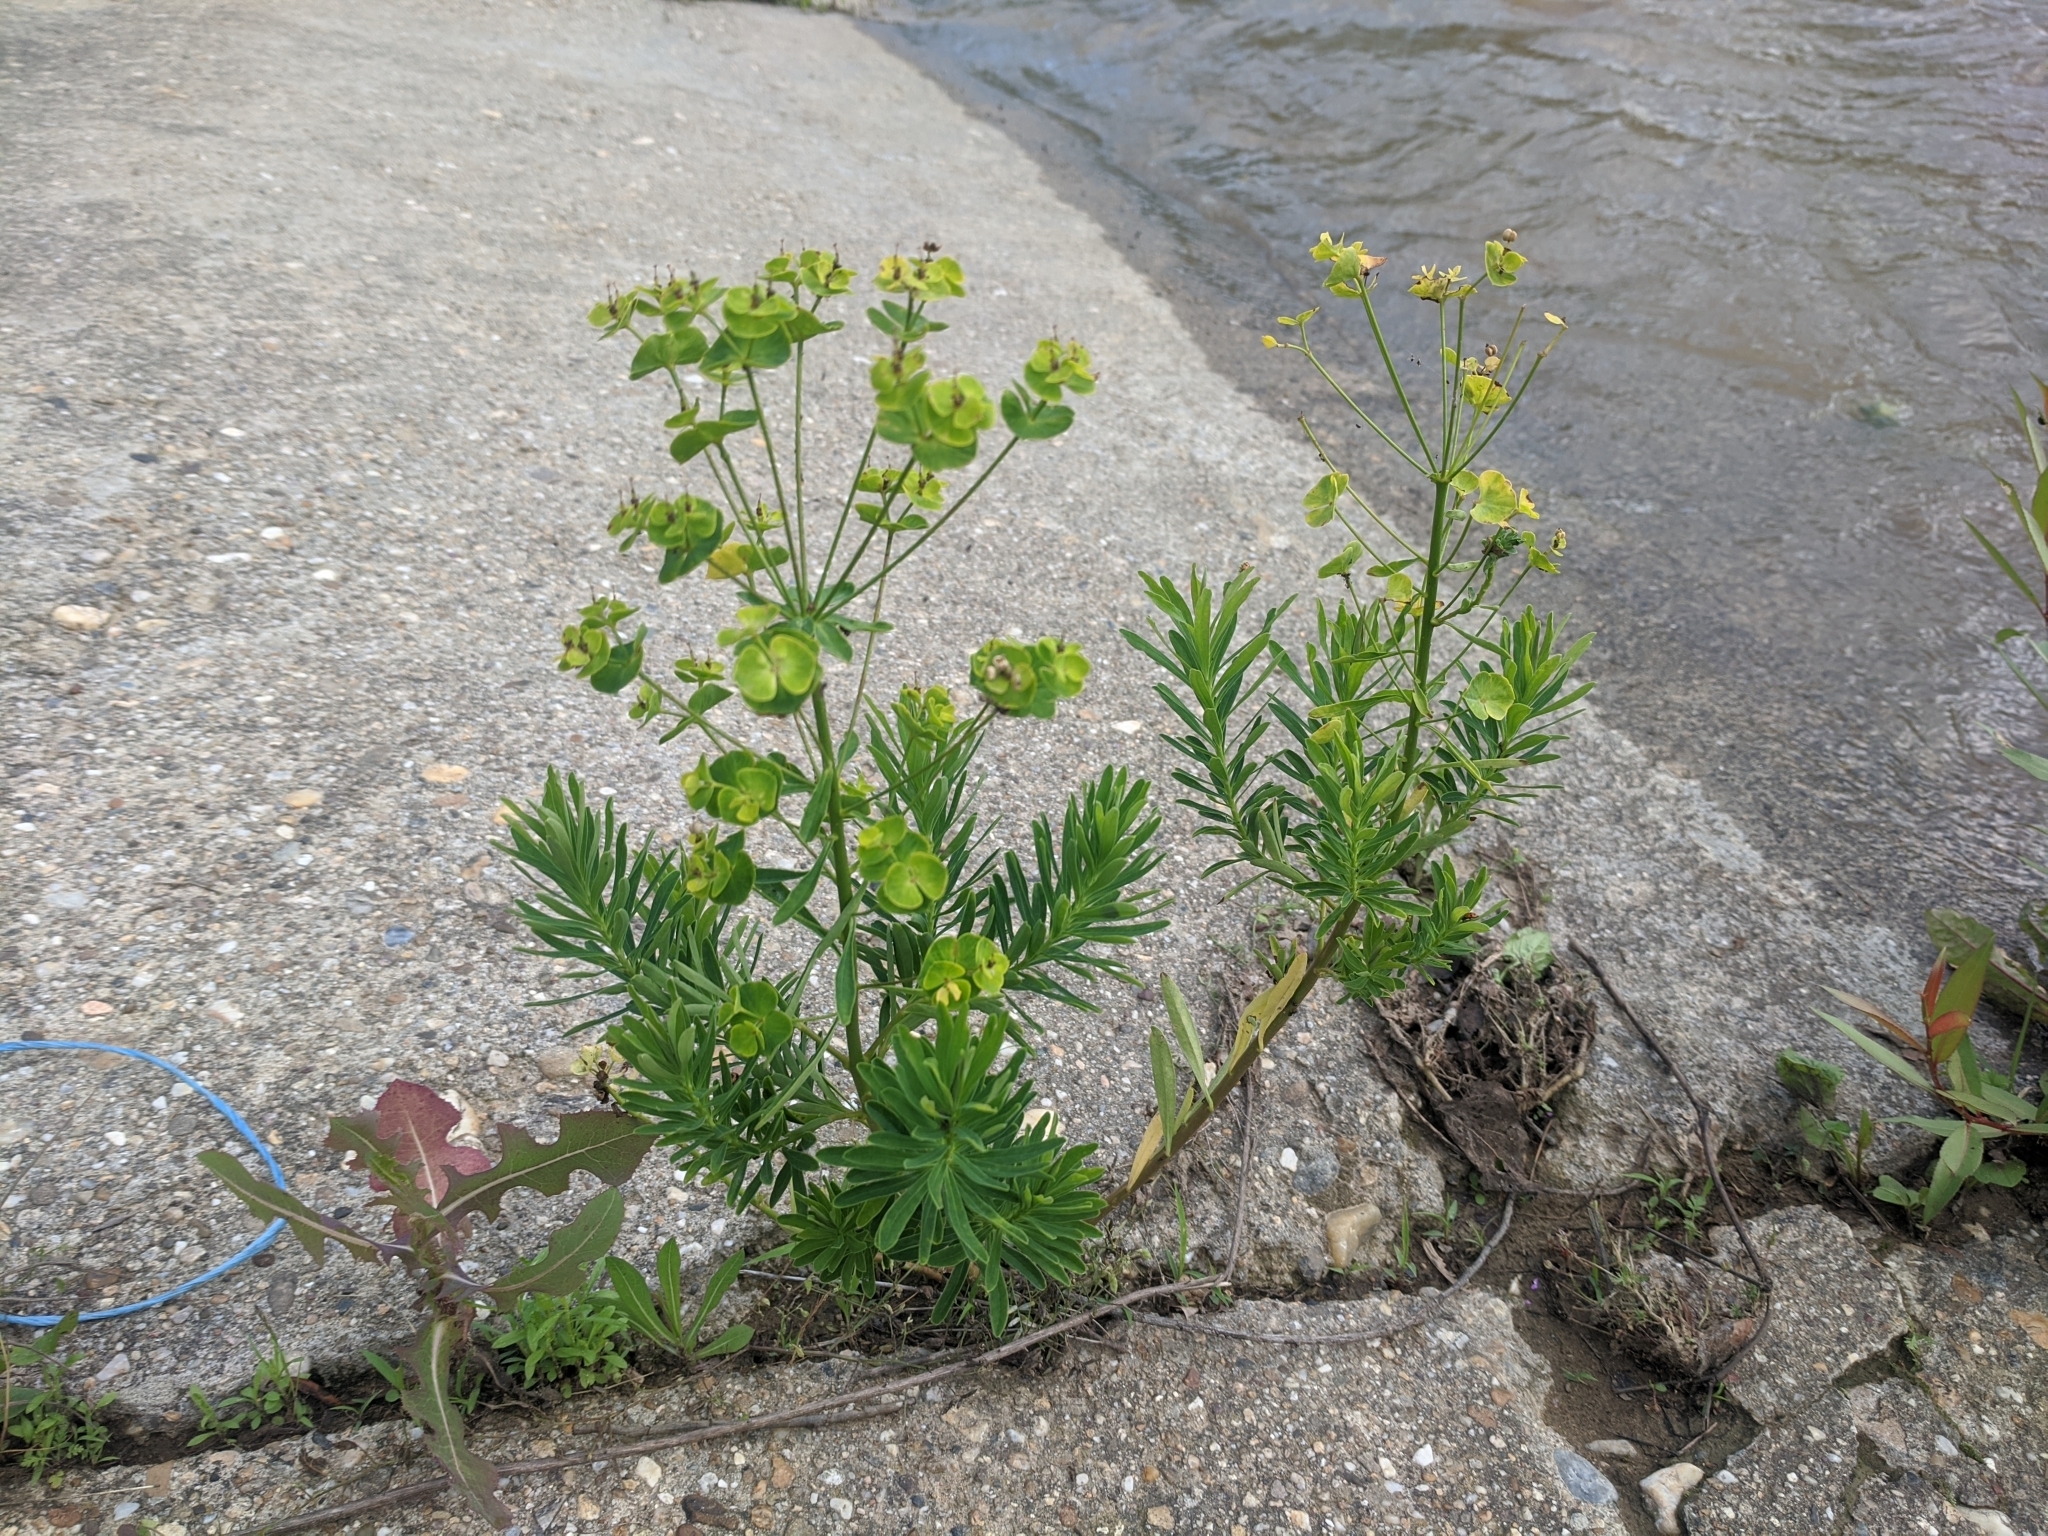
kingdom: Plantae
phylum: Tracheophyta
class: Magnoliopsida
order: Malpighiales
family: Euphorbiaceae
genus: Euphorbia
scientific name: Euphorbia esula
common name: Leafy spurge
